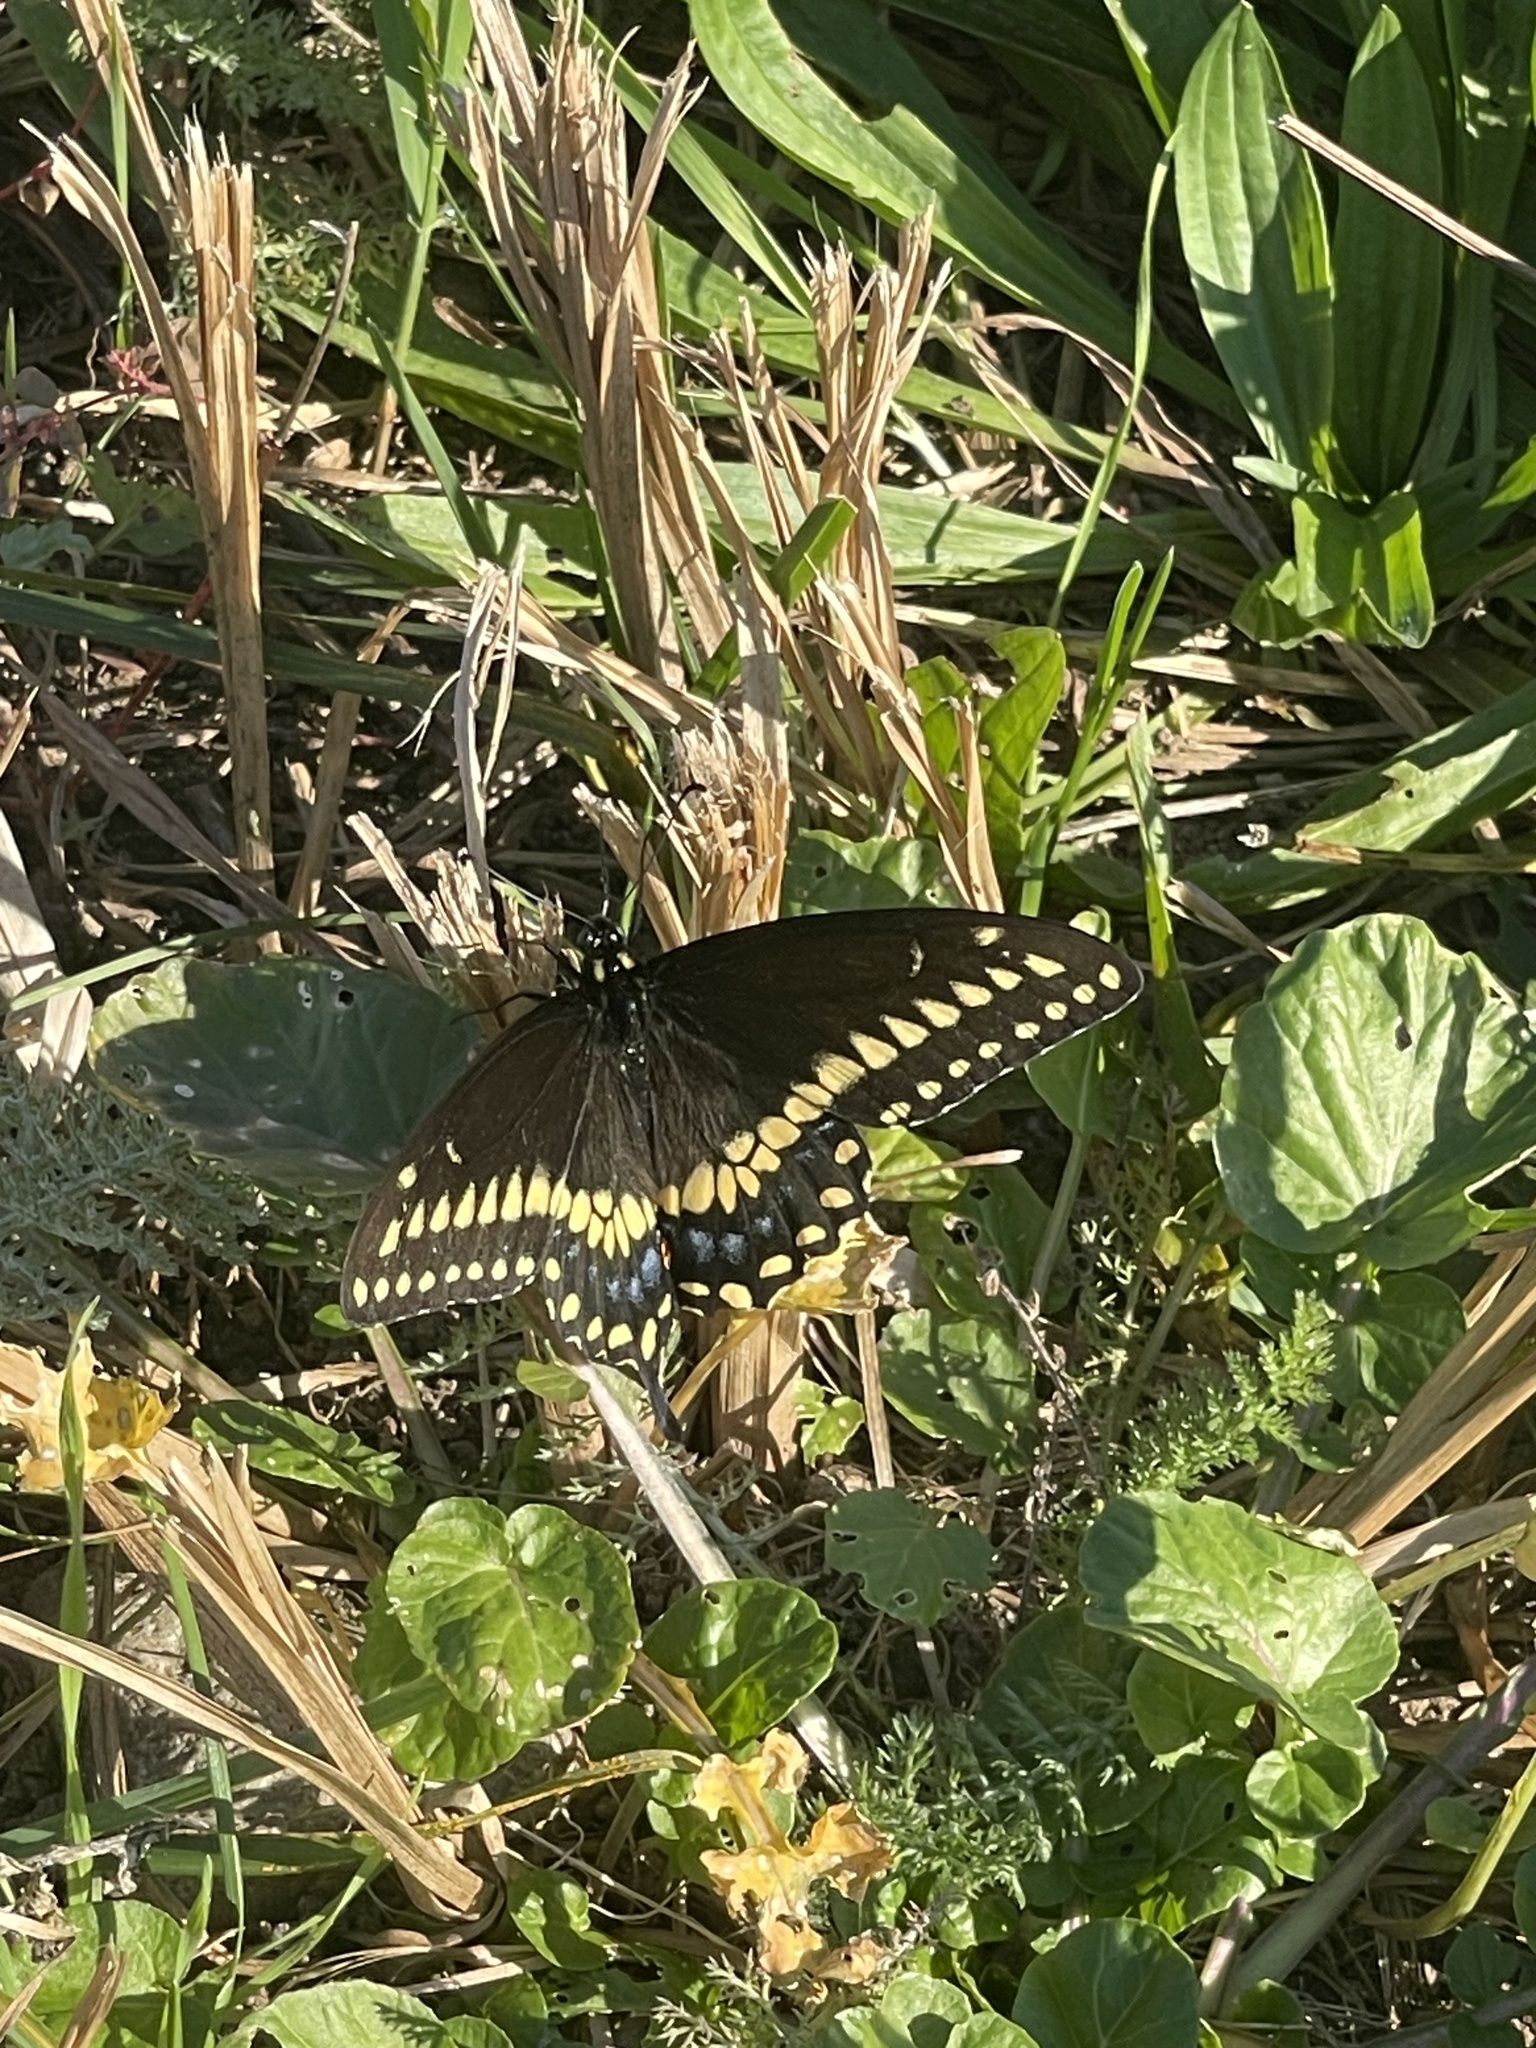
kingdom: Animalia
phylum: Arthropoda
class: Insecta
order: Lepidoptera
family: Papilionidae
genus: Papilio
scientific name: Papilio polyxenes
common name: Black swallowtail
